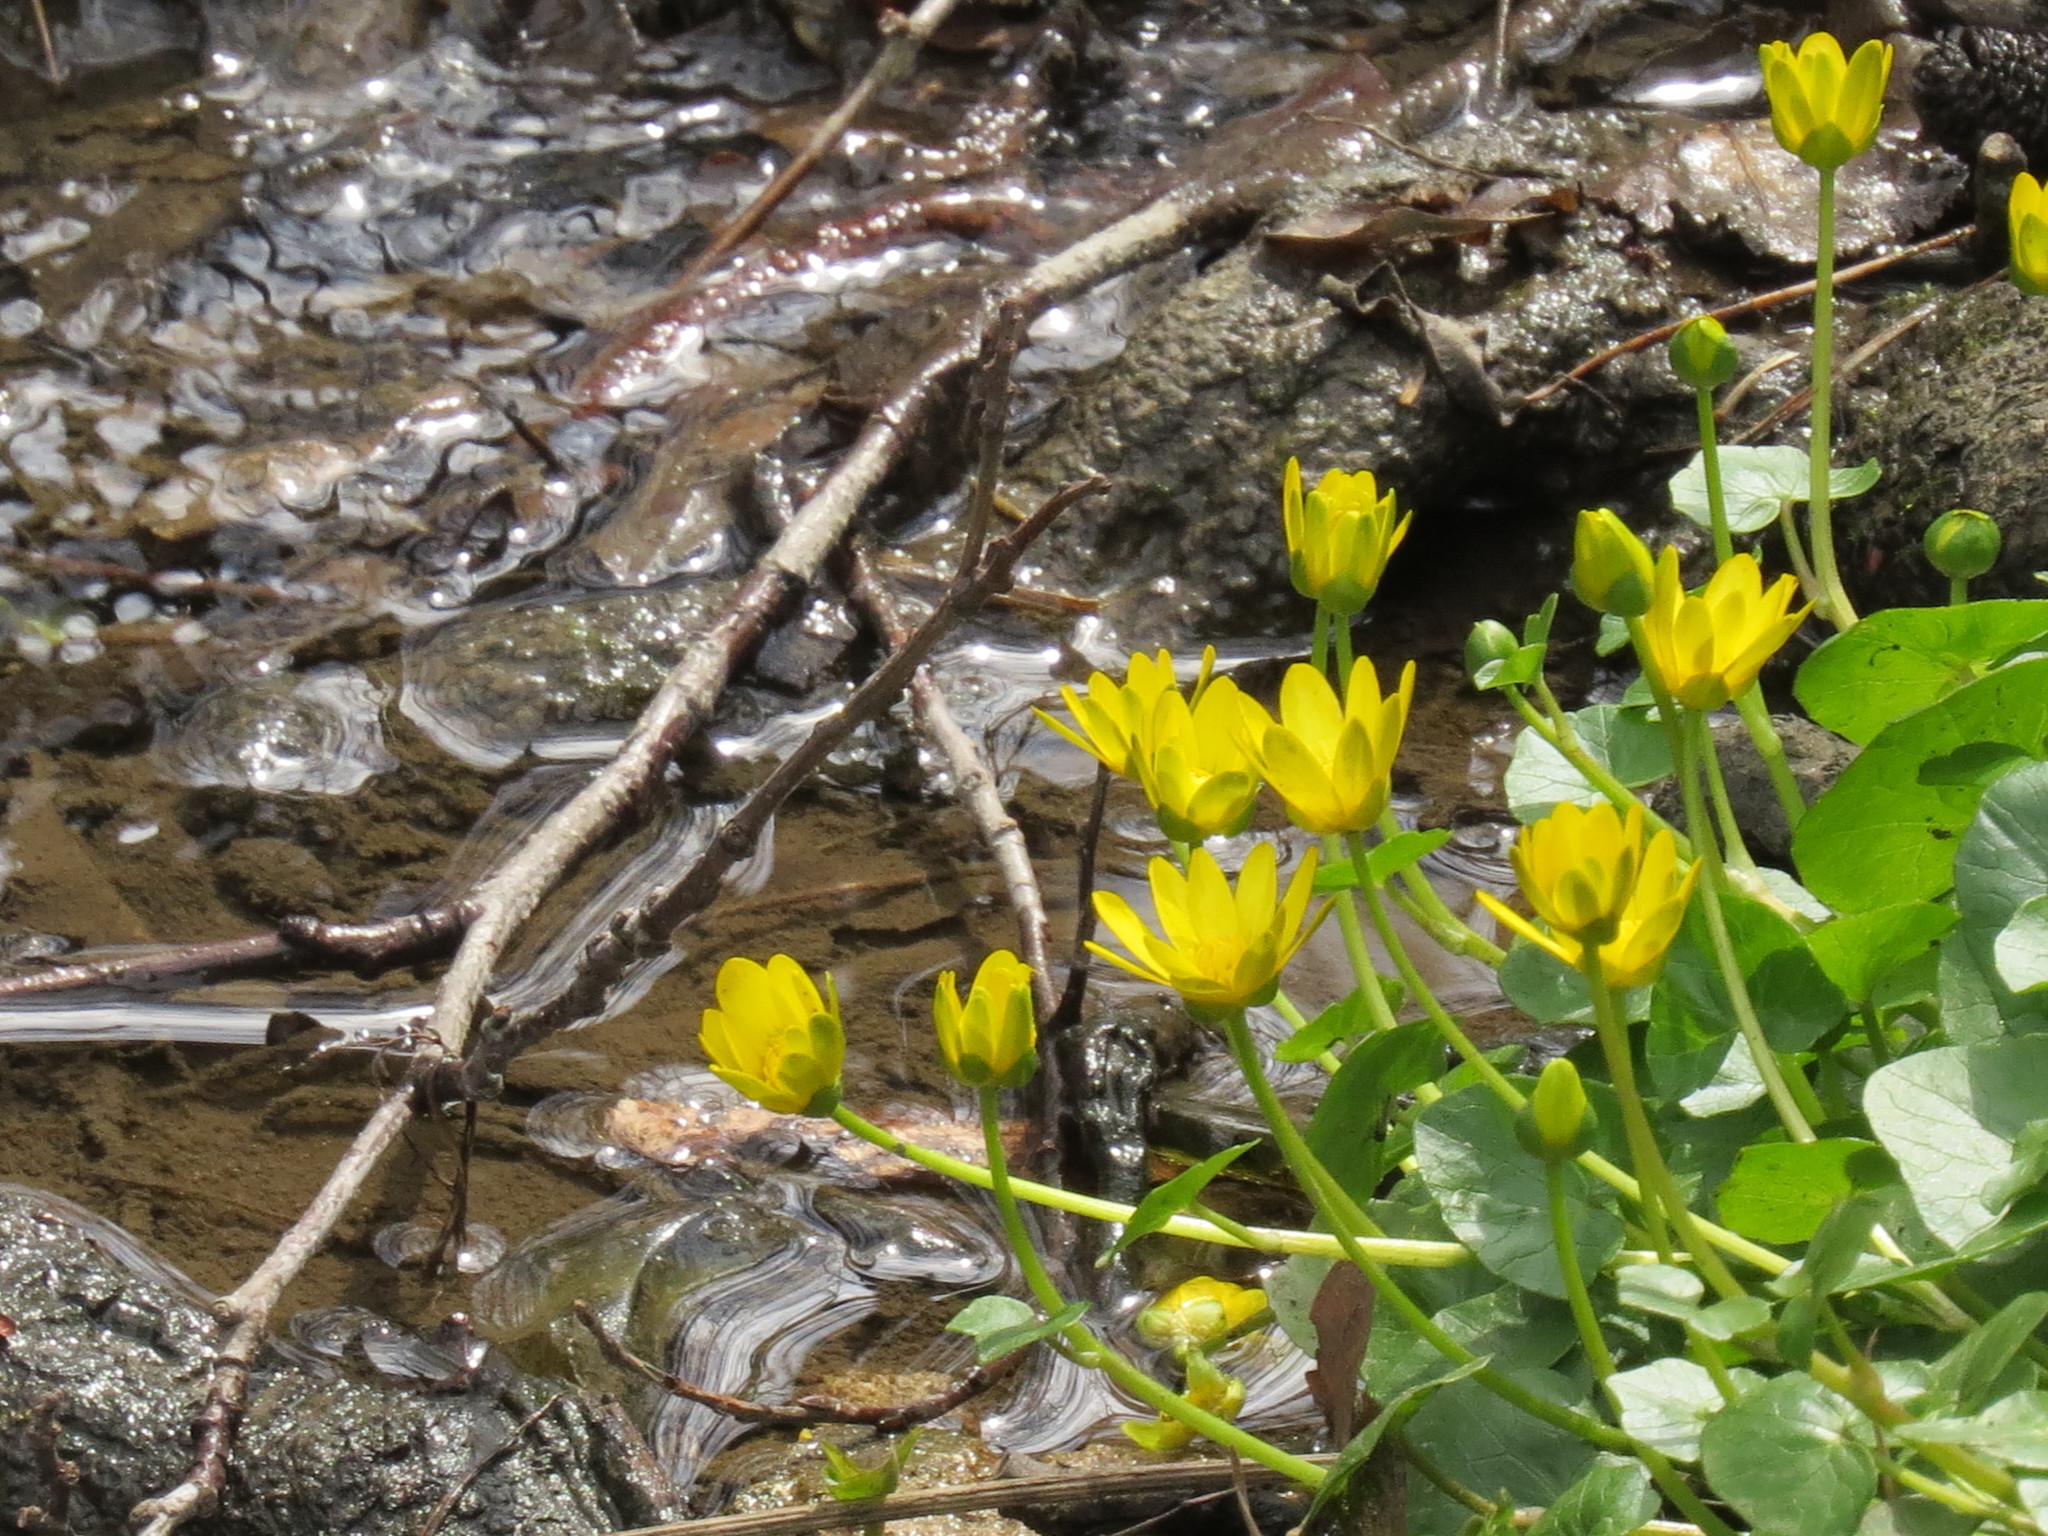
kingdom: Plantae
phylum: Tracheophyta
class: Magnoliopsida
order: Ranunculales
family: Ranunculaceae
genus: Ficaria
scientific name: Ficaria verna
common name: Lesser celandine
